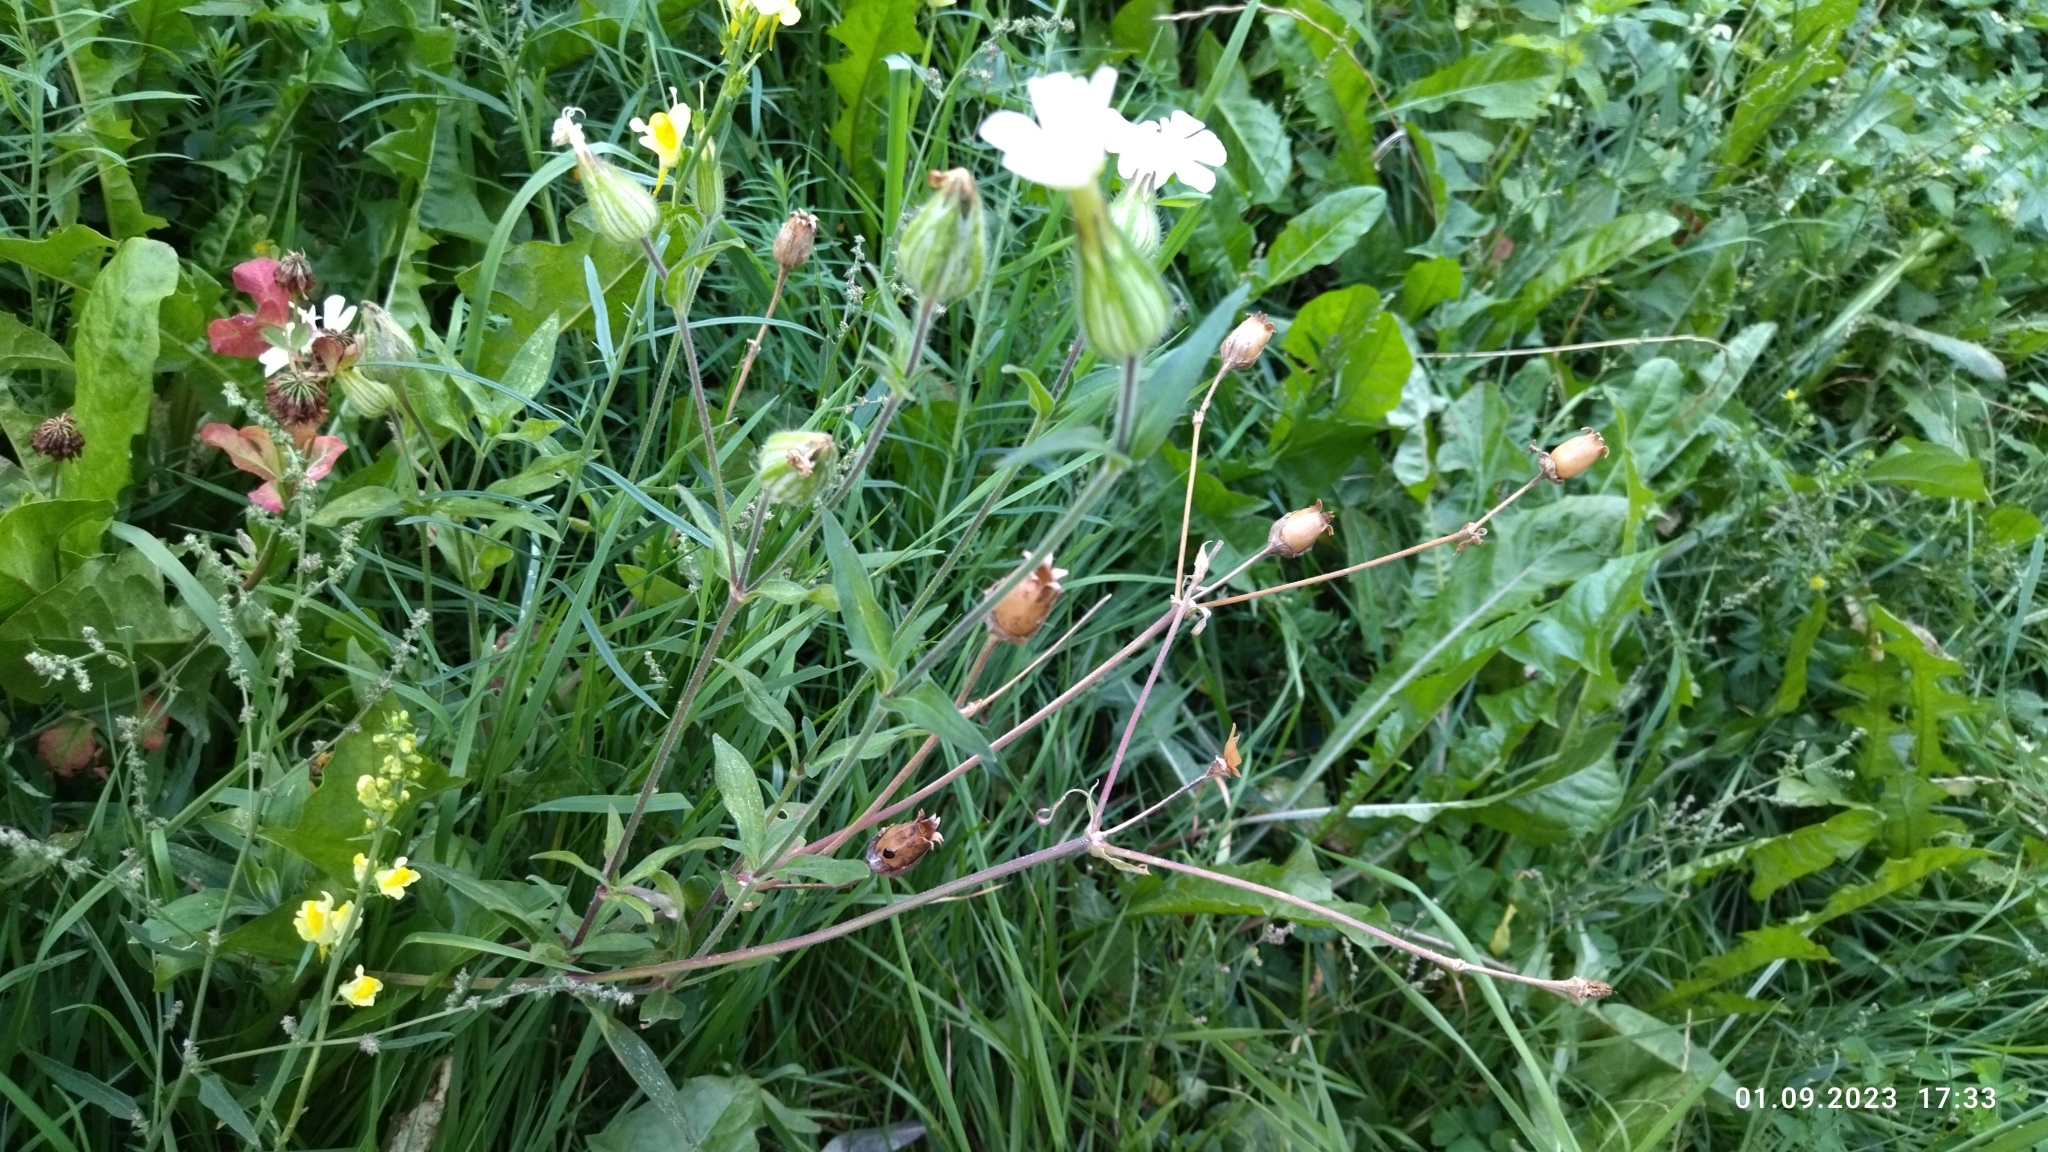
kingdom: Plantae
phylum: Tracheophyta
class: Magnoliopsida
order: Caryophyllales
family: Caryophyllaceae
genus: Silene
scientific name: Silene latifolia
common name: White campion
